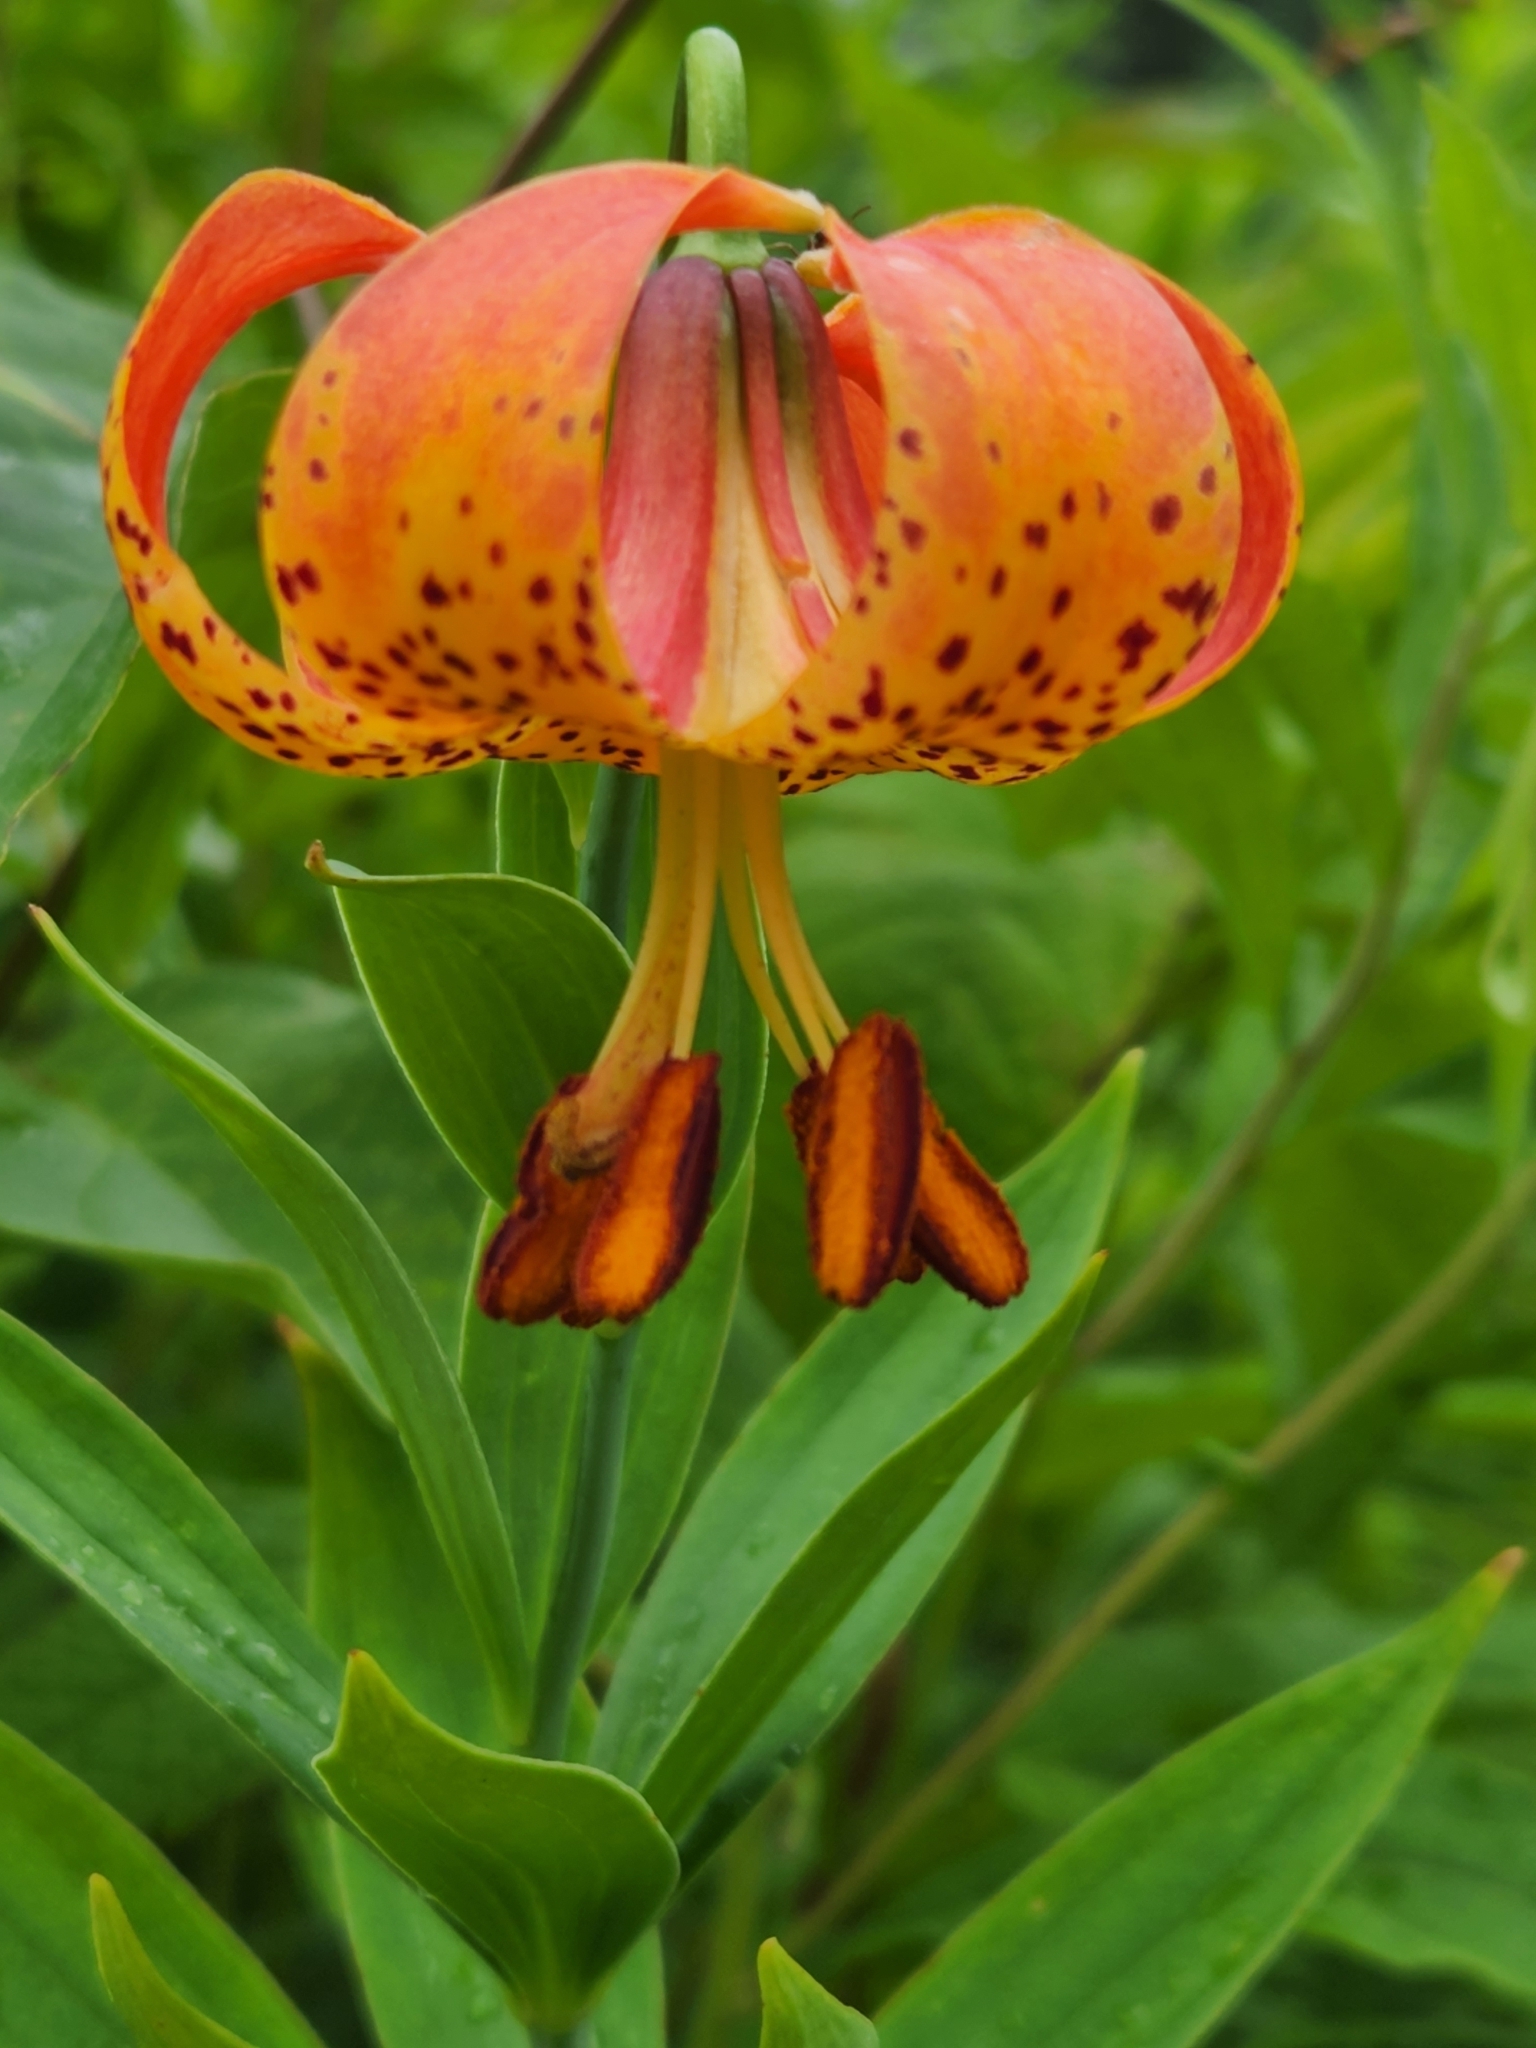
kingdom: Plantae
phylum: Tracheophyta
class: Liliopsida
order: Liliales
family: Liliaceae
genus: Lilium
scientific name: Lilium michiganense
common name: Michigan lily
